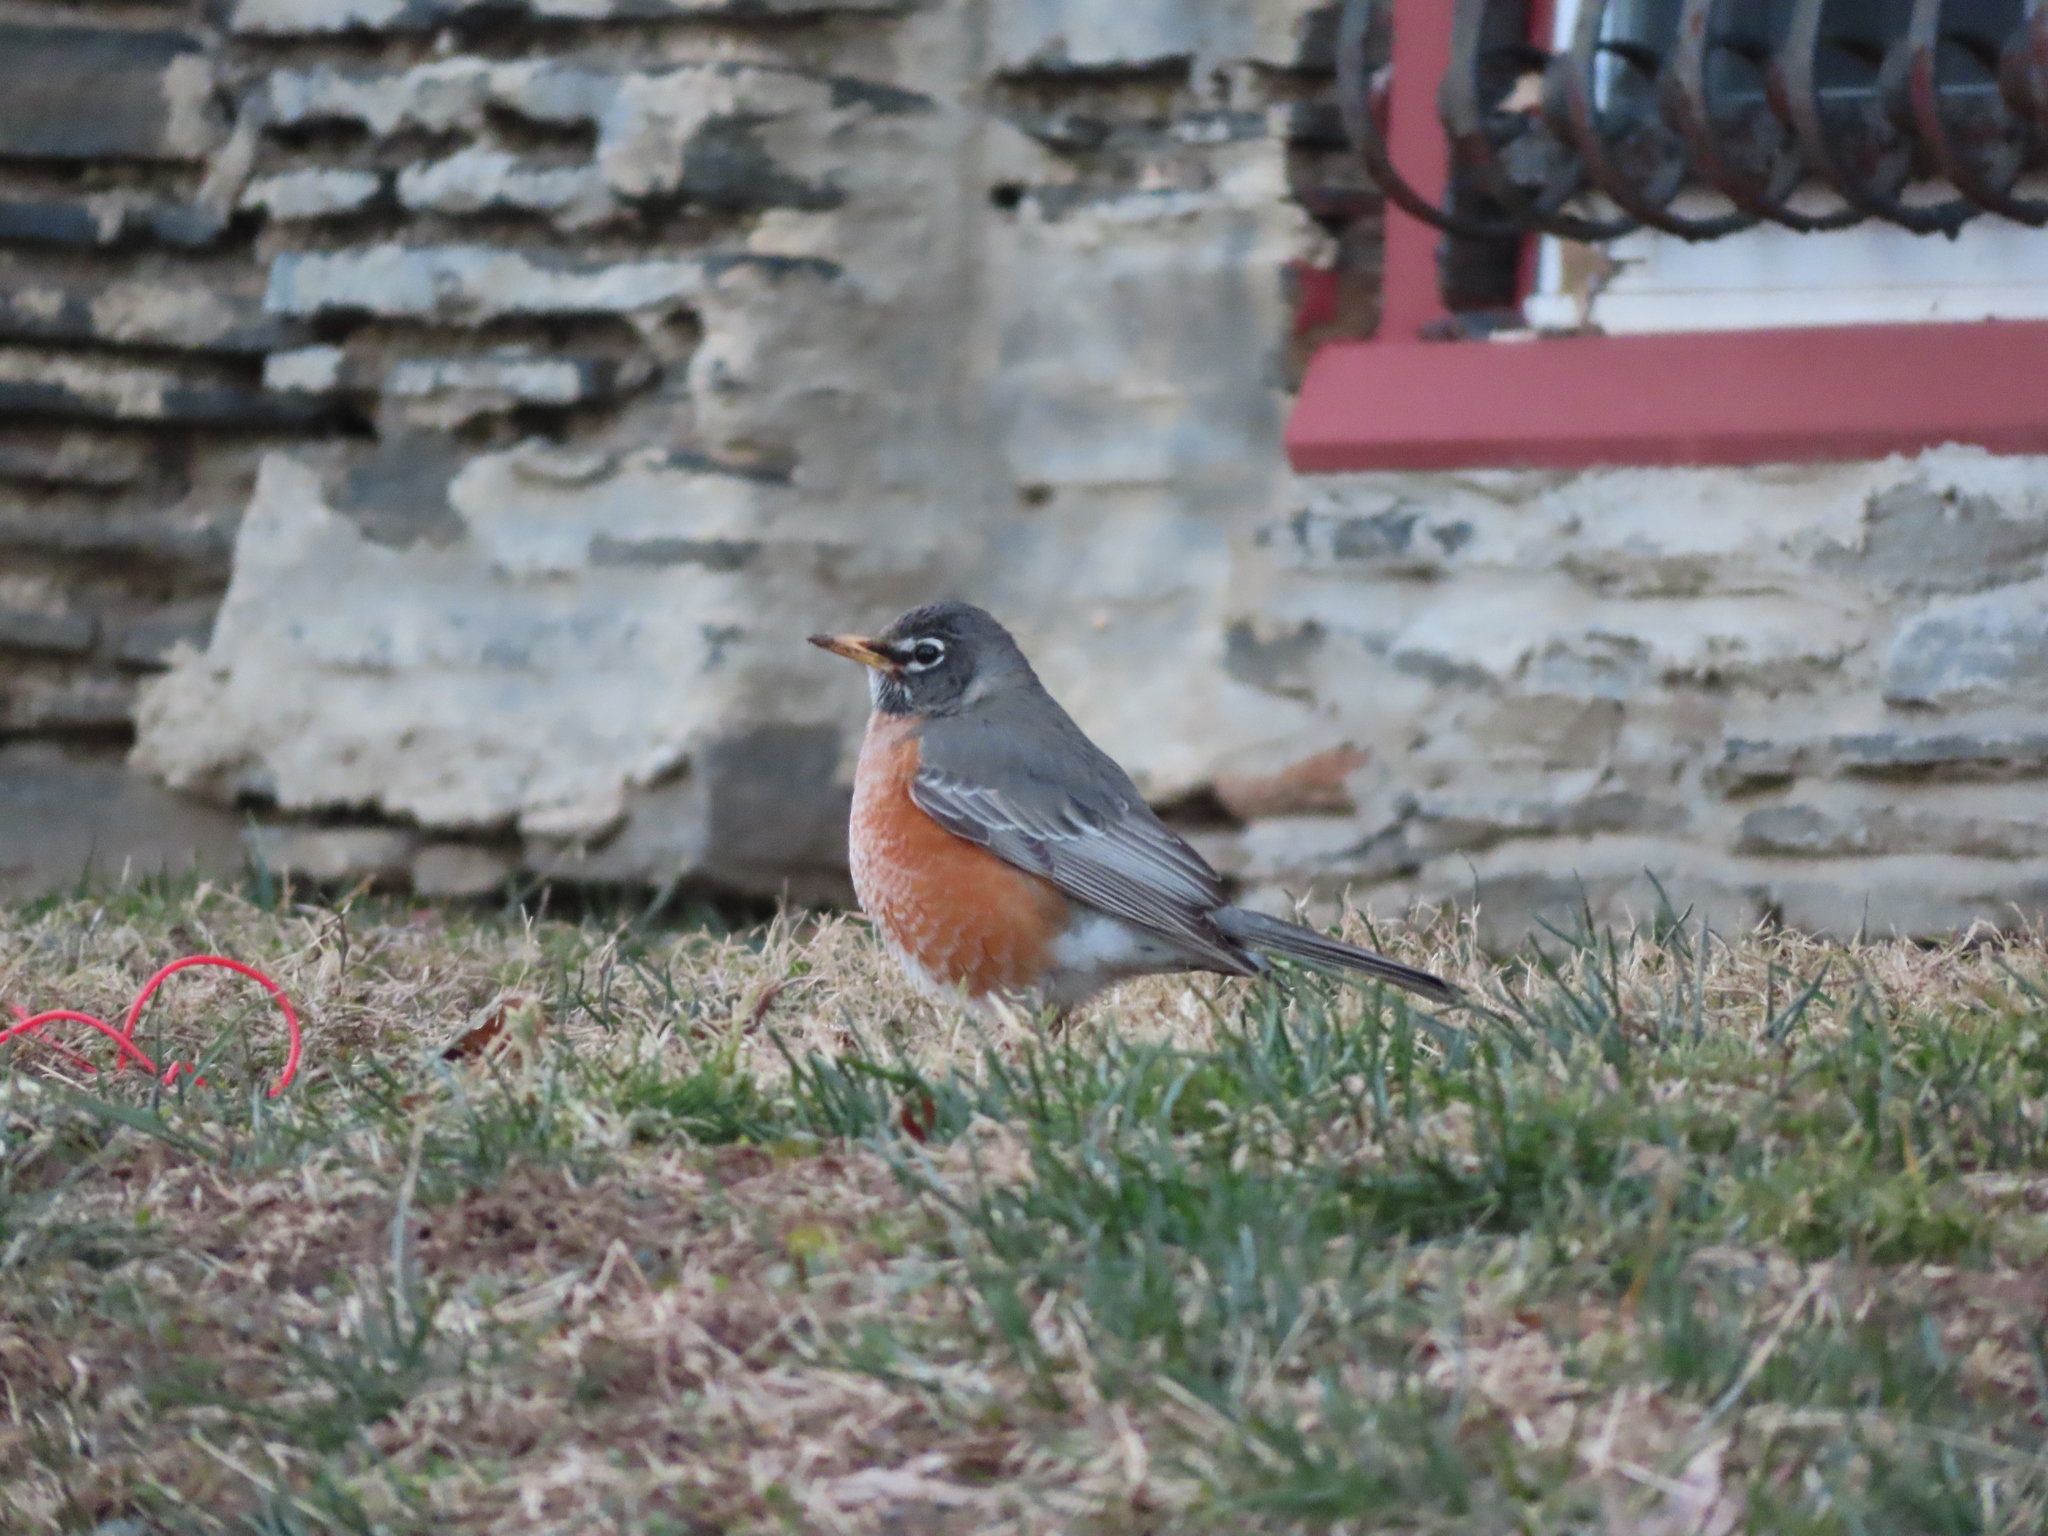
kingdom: Animalia
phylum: Chordata
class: Aves
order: Passeriformes
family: Turdidae
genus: Turdus
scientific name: Turdus migratorius
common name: American robin
